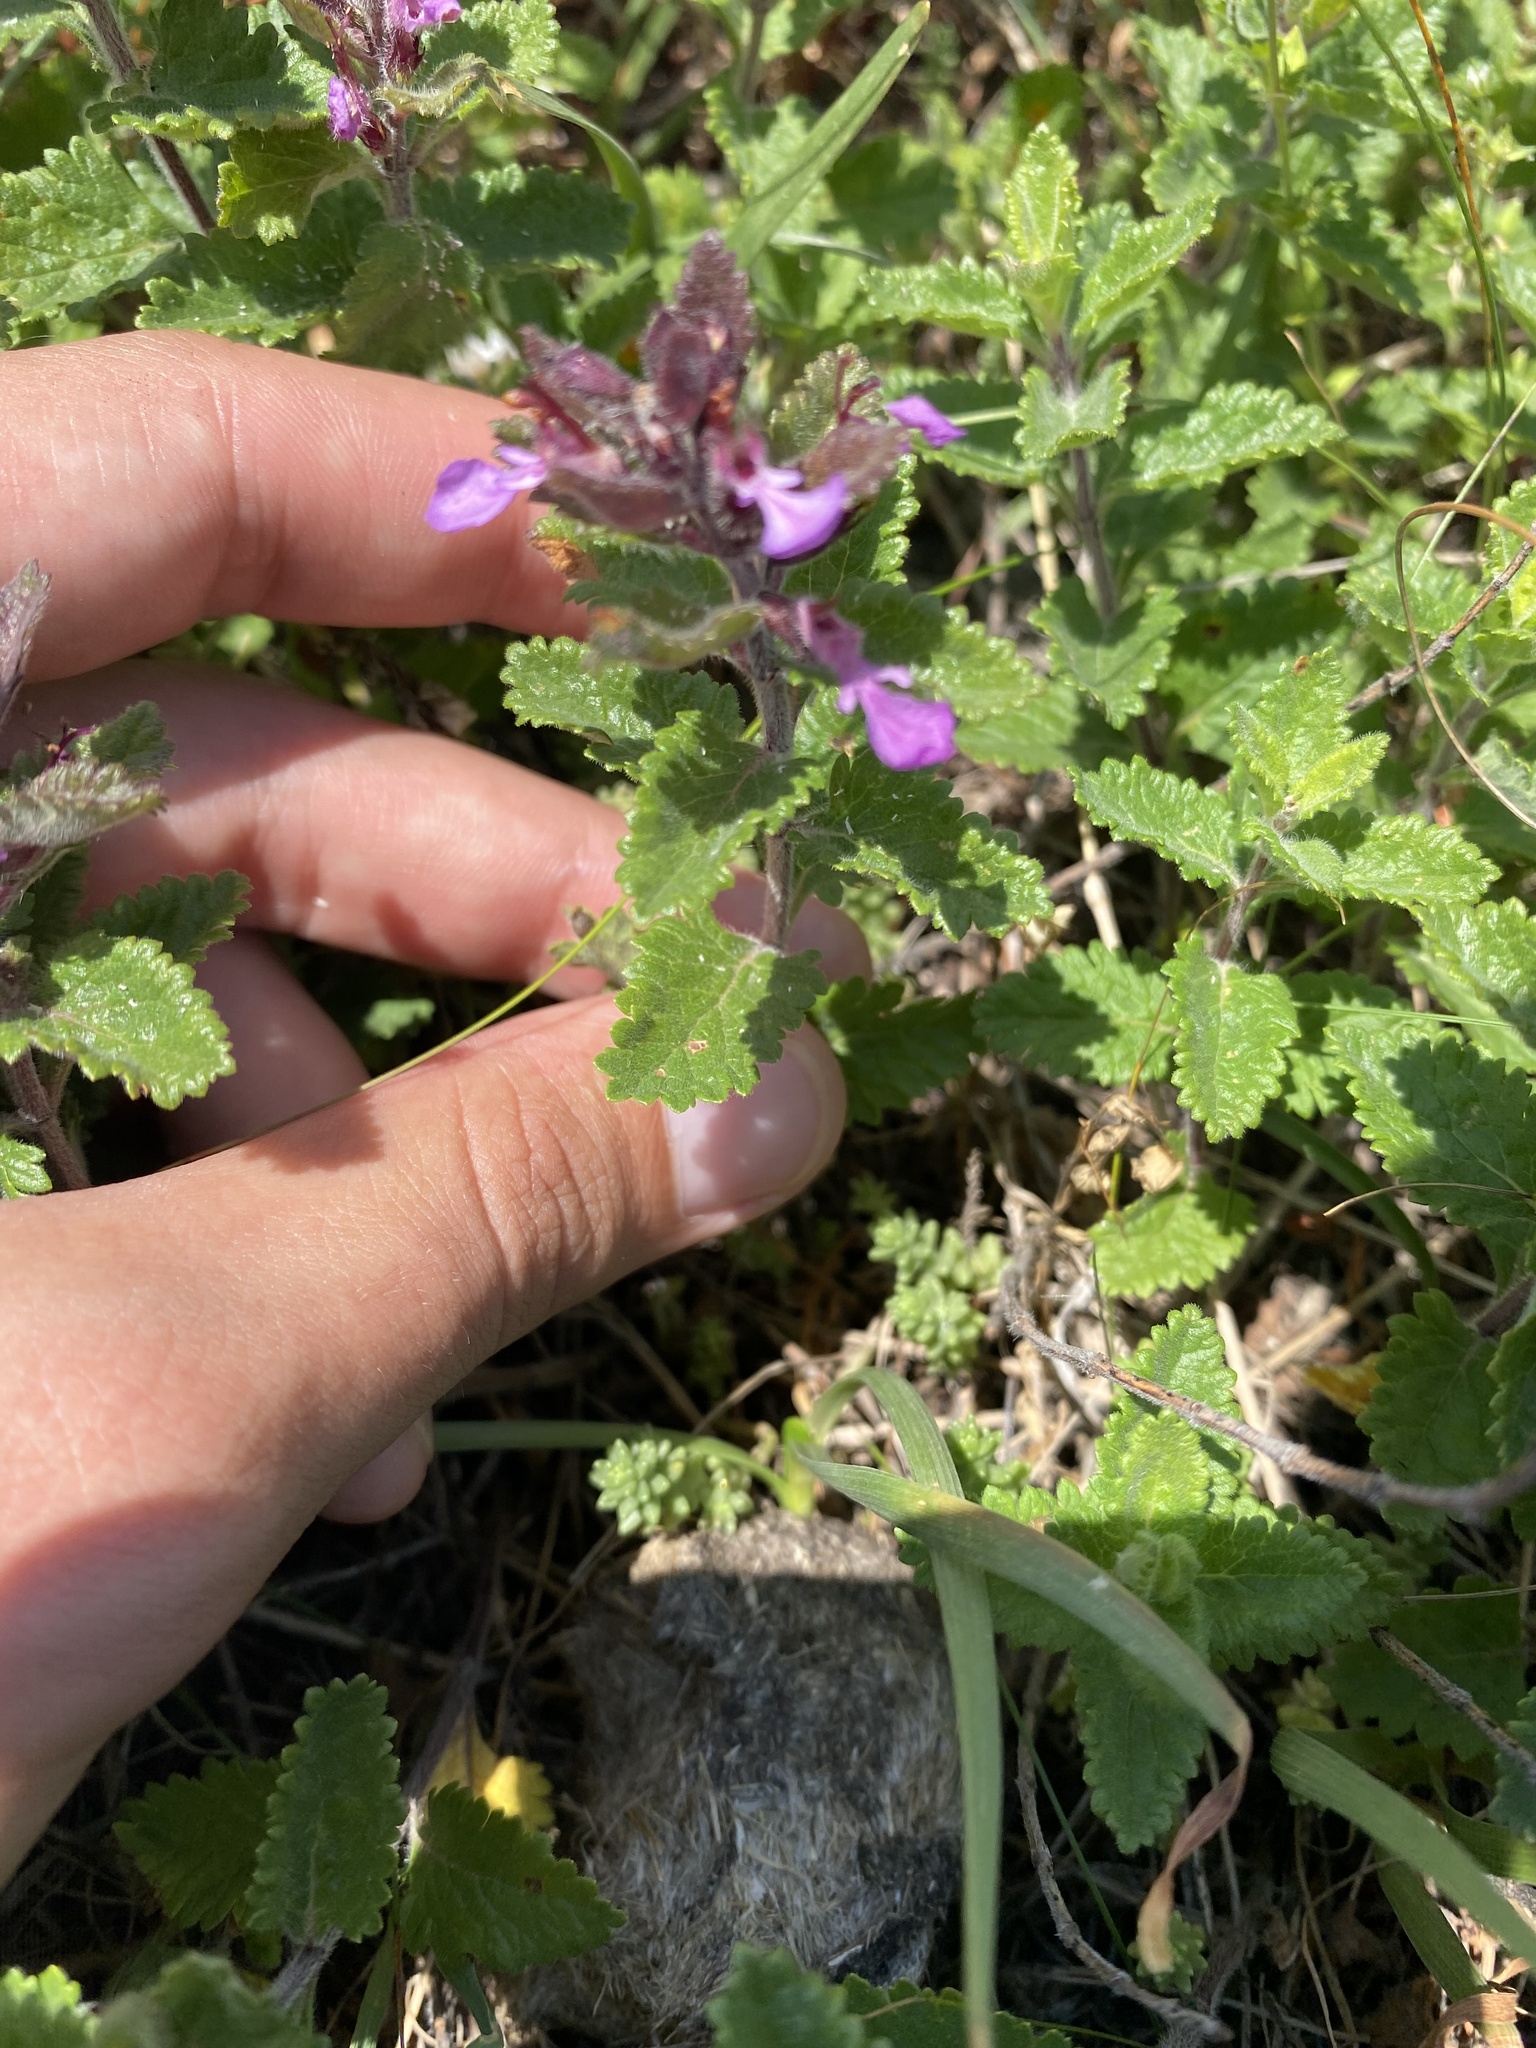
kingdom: Plantae
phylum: Tracheophyta
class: Magnoliopsida
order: Lamiales
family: Lamiaceae
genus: Teucrium
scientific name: Teucrium chamaedrys
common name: Wall germander
